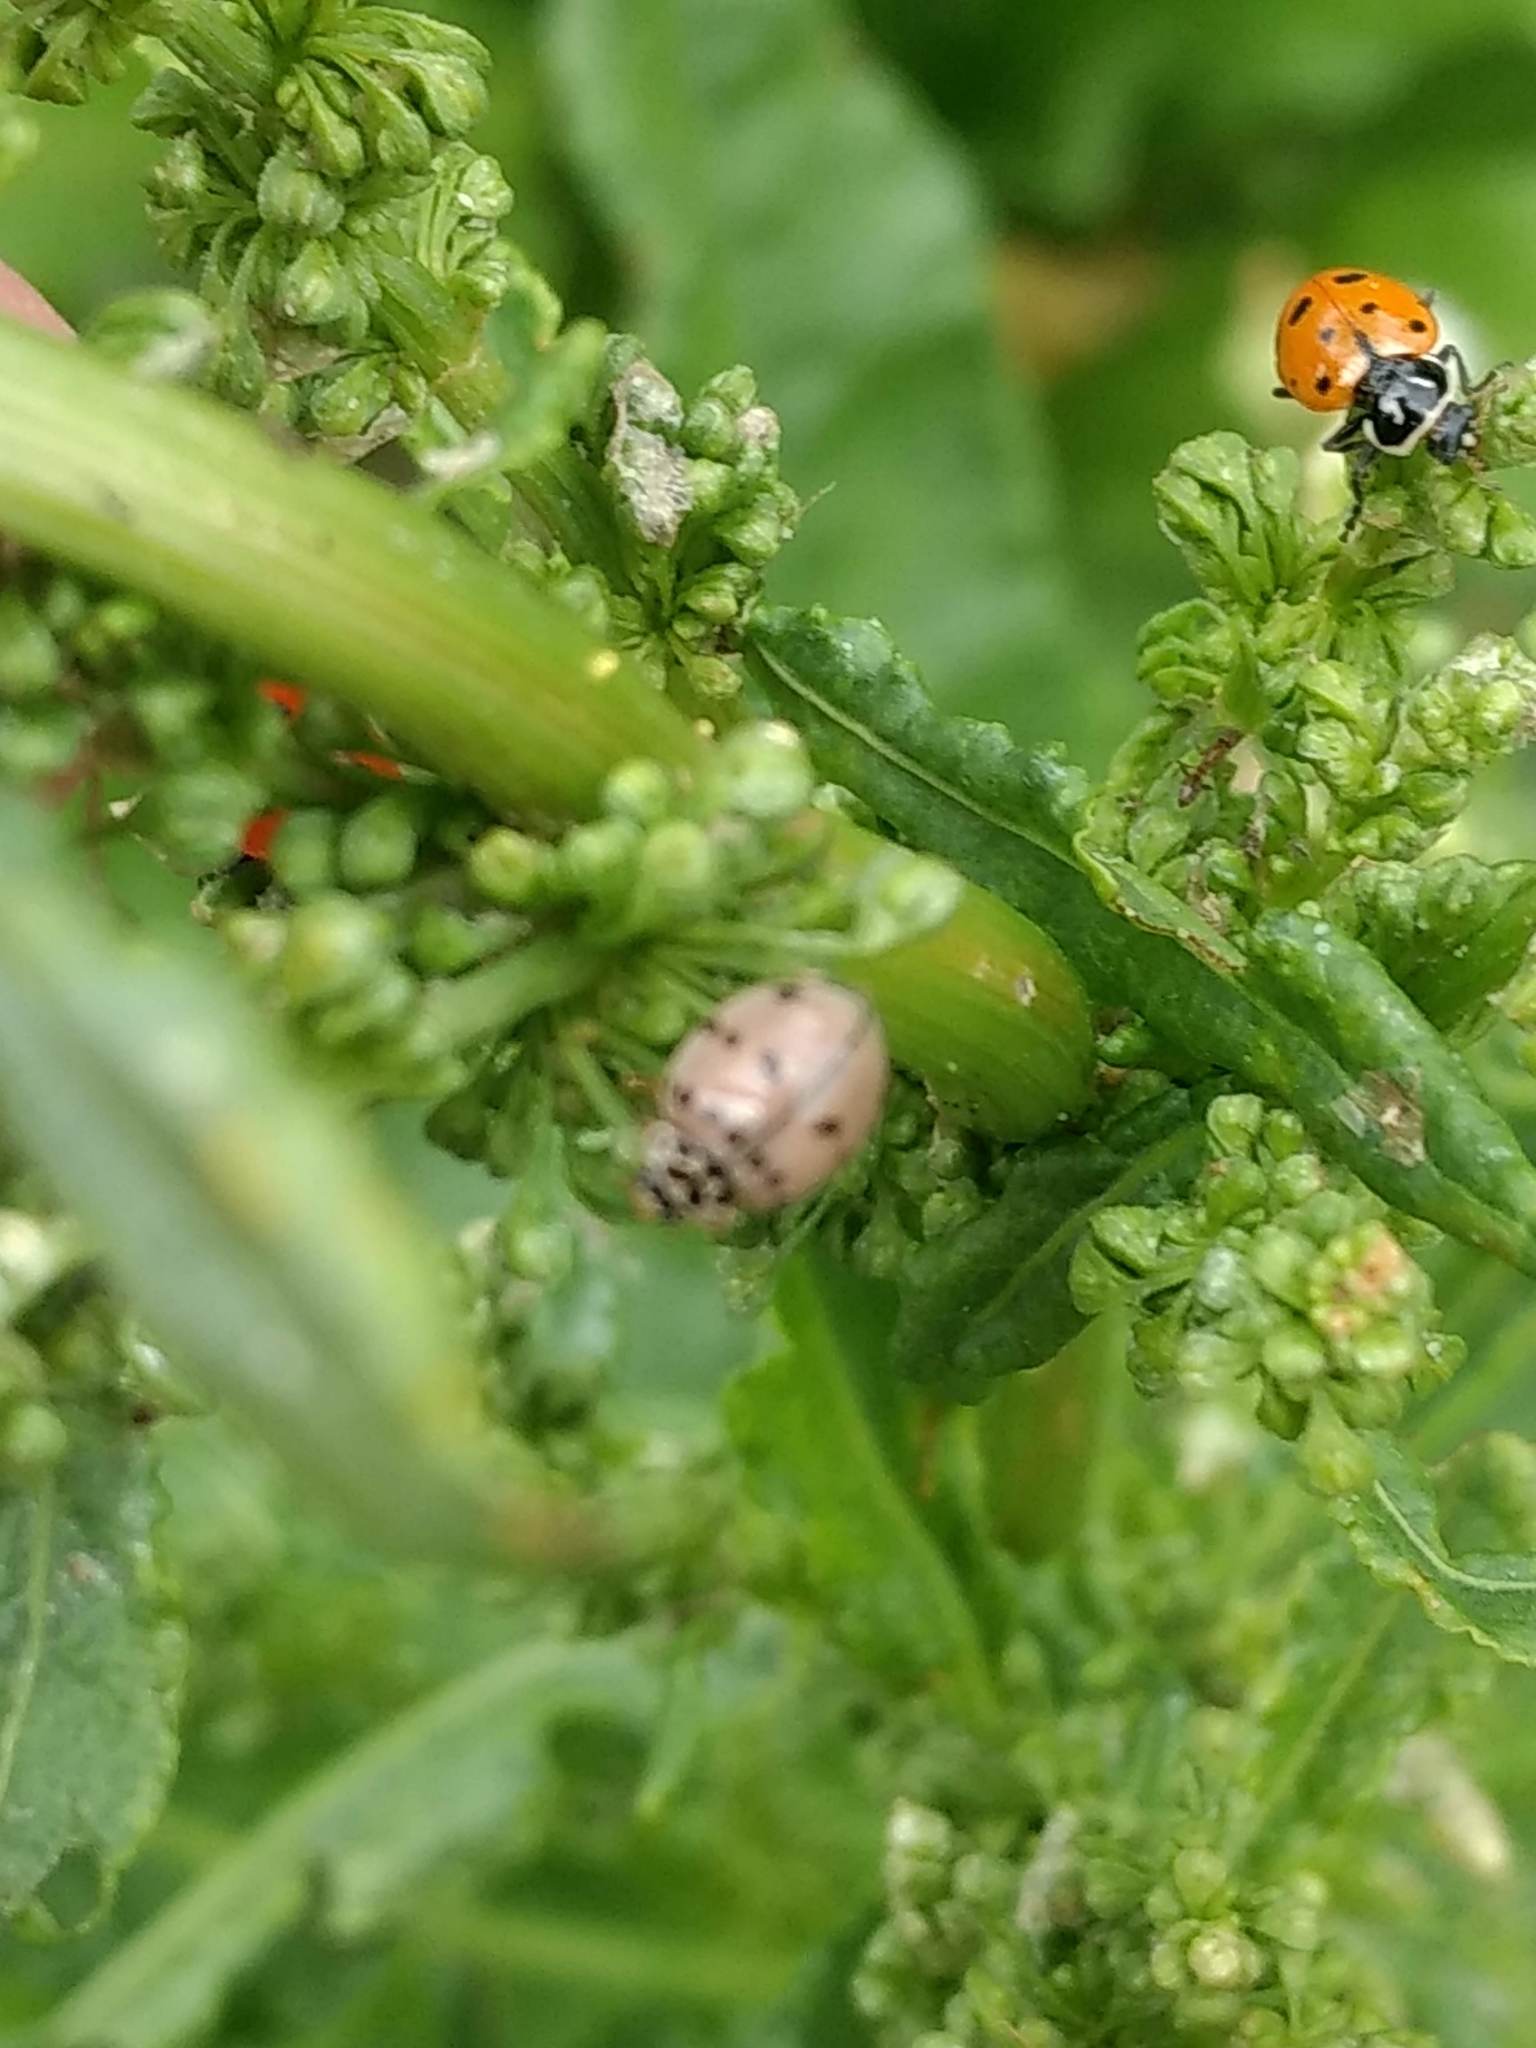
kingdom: Animalia
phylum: Arthropoda
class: Insecta
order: Coleoptera
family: Coccinellidae
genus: Hippodamia
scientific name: Hippodamia convergens
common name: Convergent lady beetle
